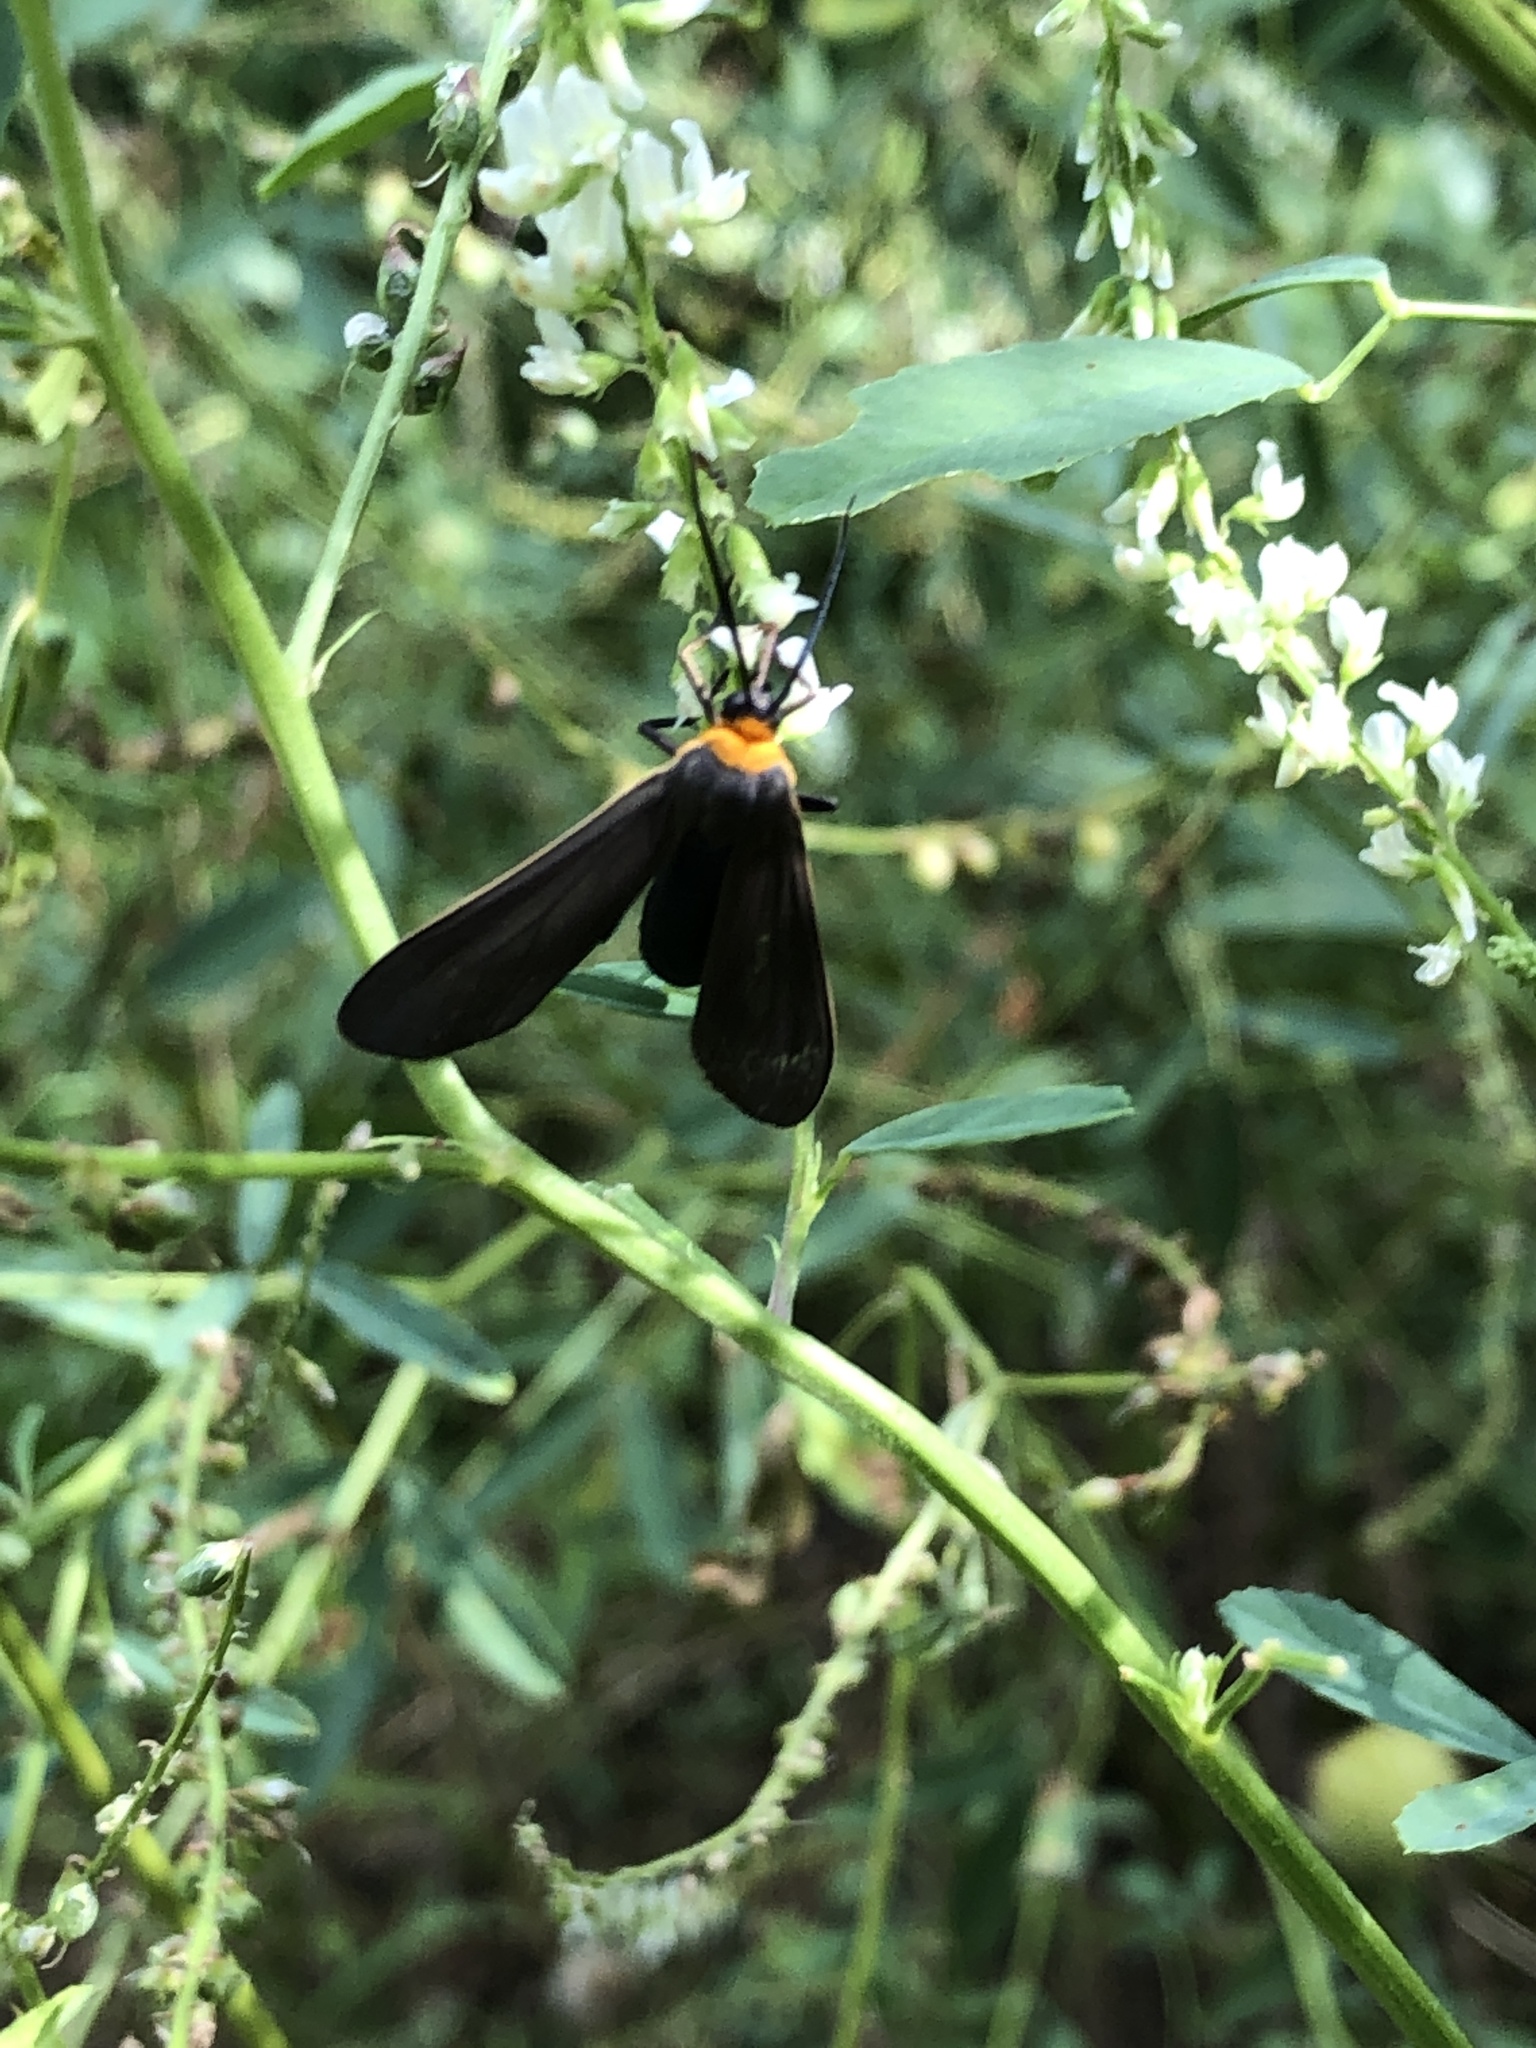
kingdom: Animalia
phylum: Arthropoda
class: Insecta
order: Lepidoptera
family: Erebidae
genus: Cisseps
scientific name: Cisseps fulvicollis
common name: Yellow-collared scape moth
